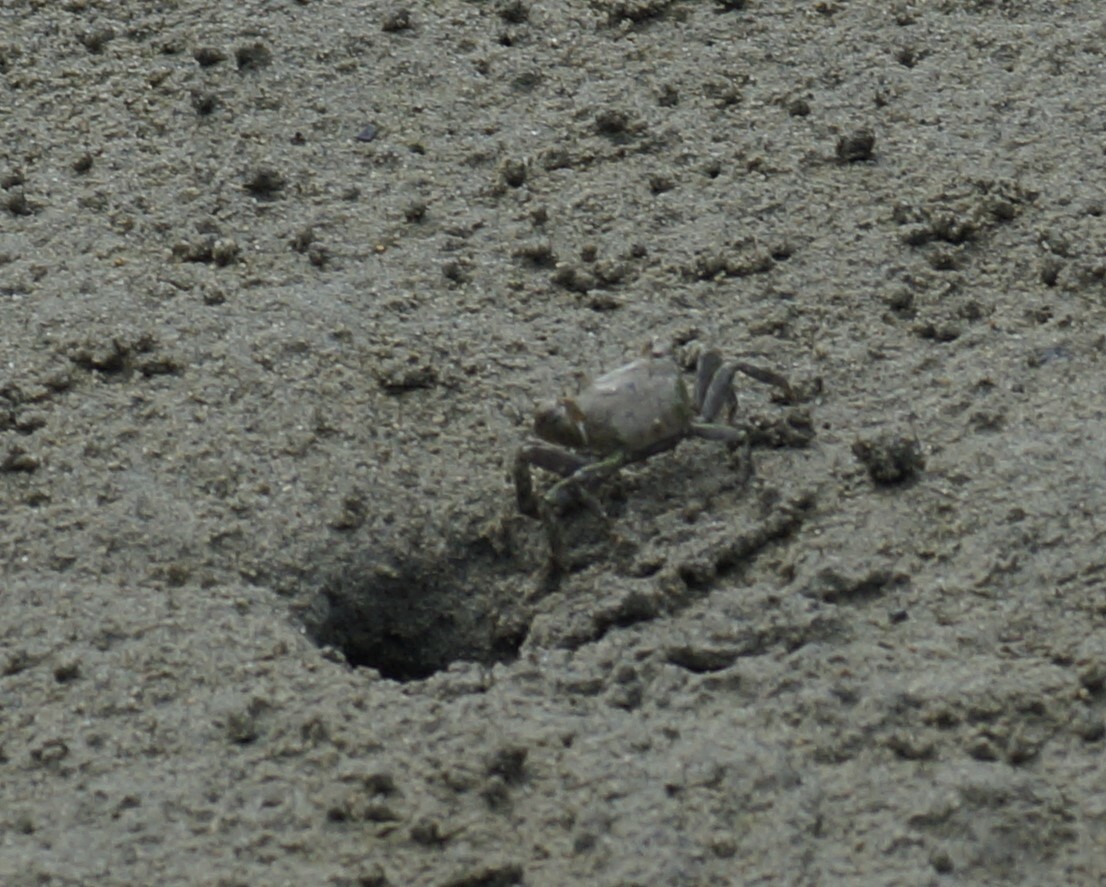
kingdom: Animalia
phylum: Arthropoda
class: Malacostraca
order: Decapoda
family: Varunidae
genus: Austrohelice
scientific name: Austrohelice crassa
